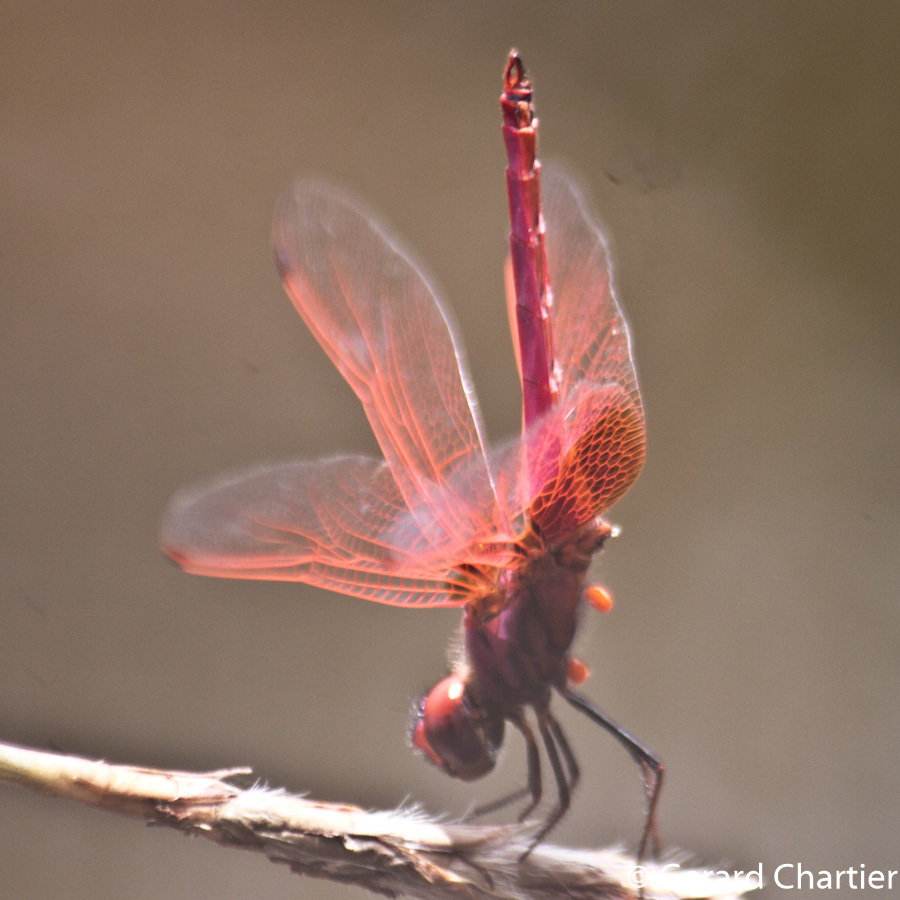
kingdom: Animalia
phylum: Arthropoda
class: Insecta
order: Odonata
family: Libellulidae
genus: Trithemis
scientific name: Trithemis aurora
